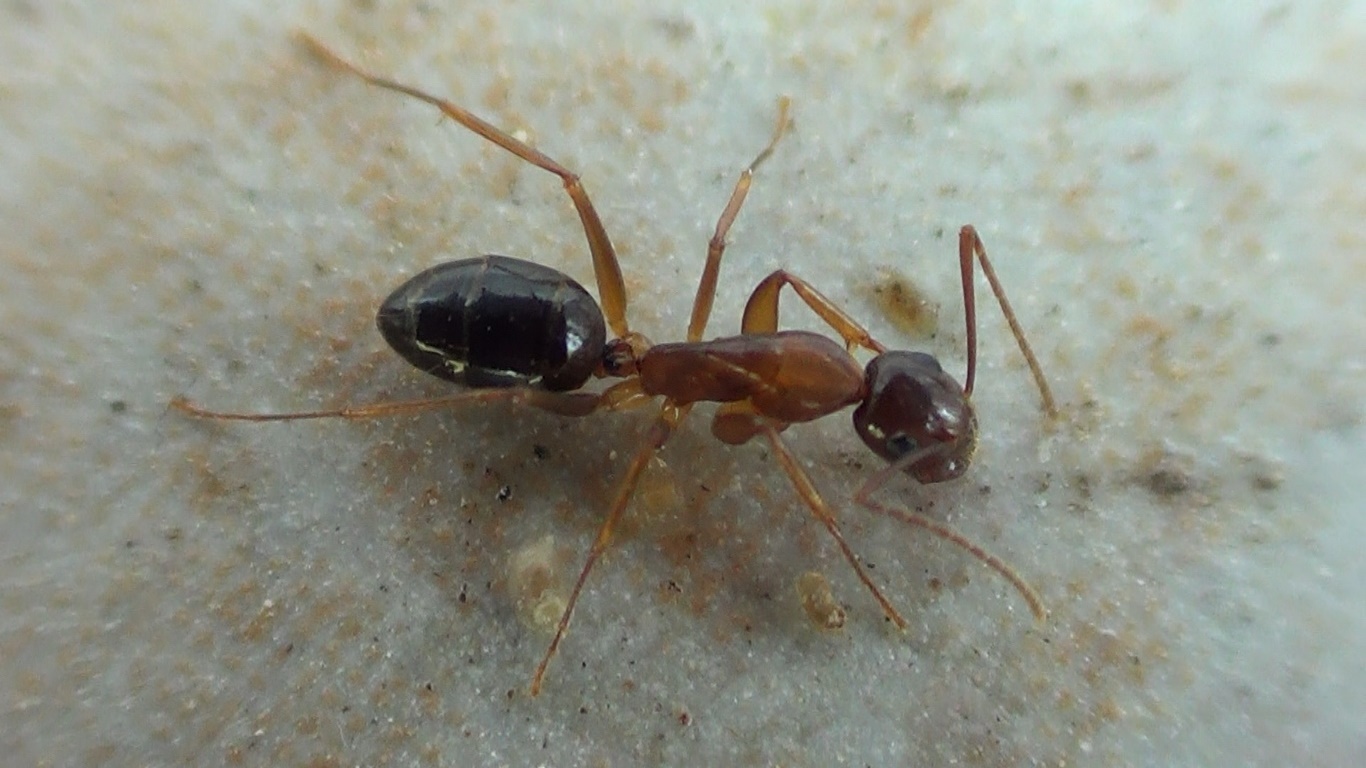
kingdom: Animalia
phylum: Arthropoda
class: Insecta
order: Hymenoptera
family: Formicidae
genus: Camponotus
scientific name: Camponotus nylanderi
